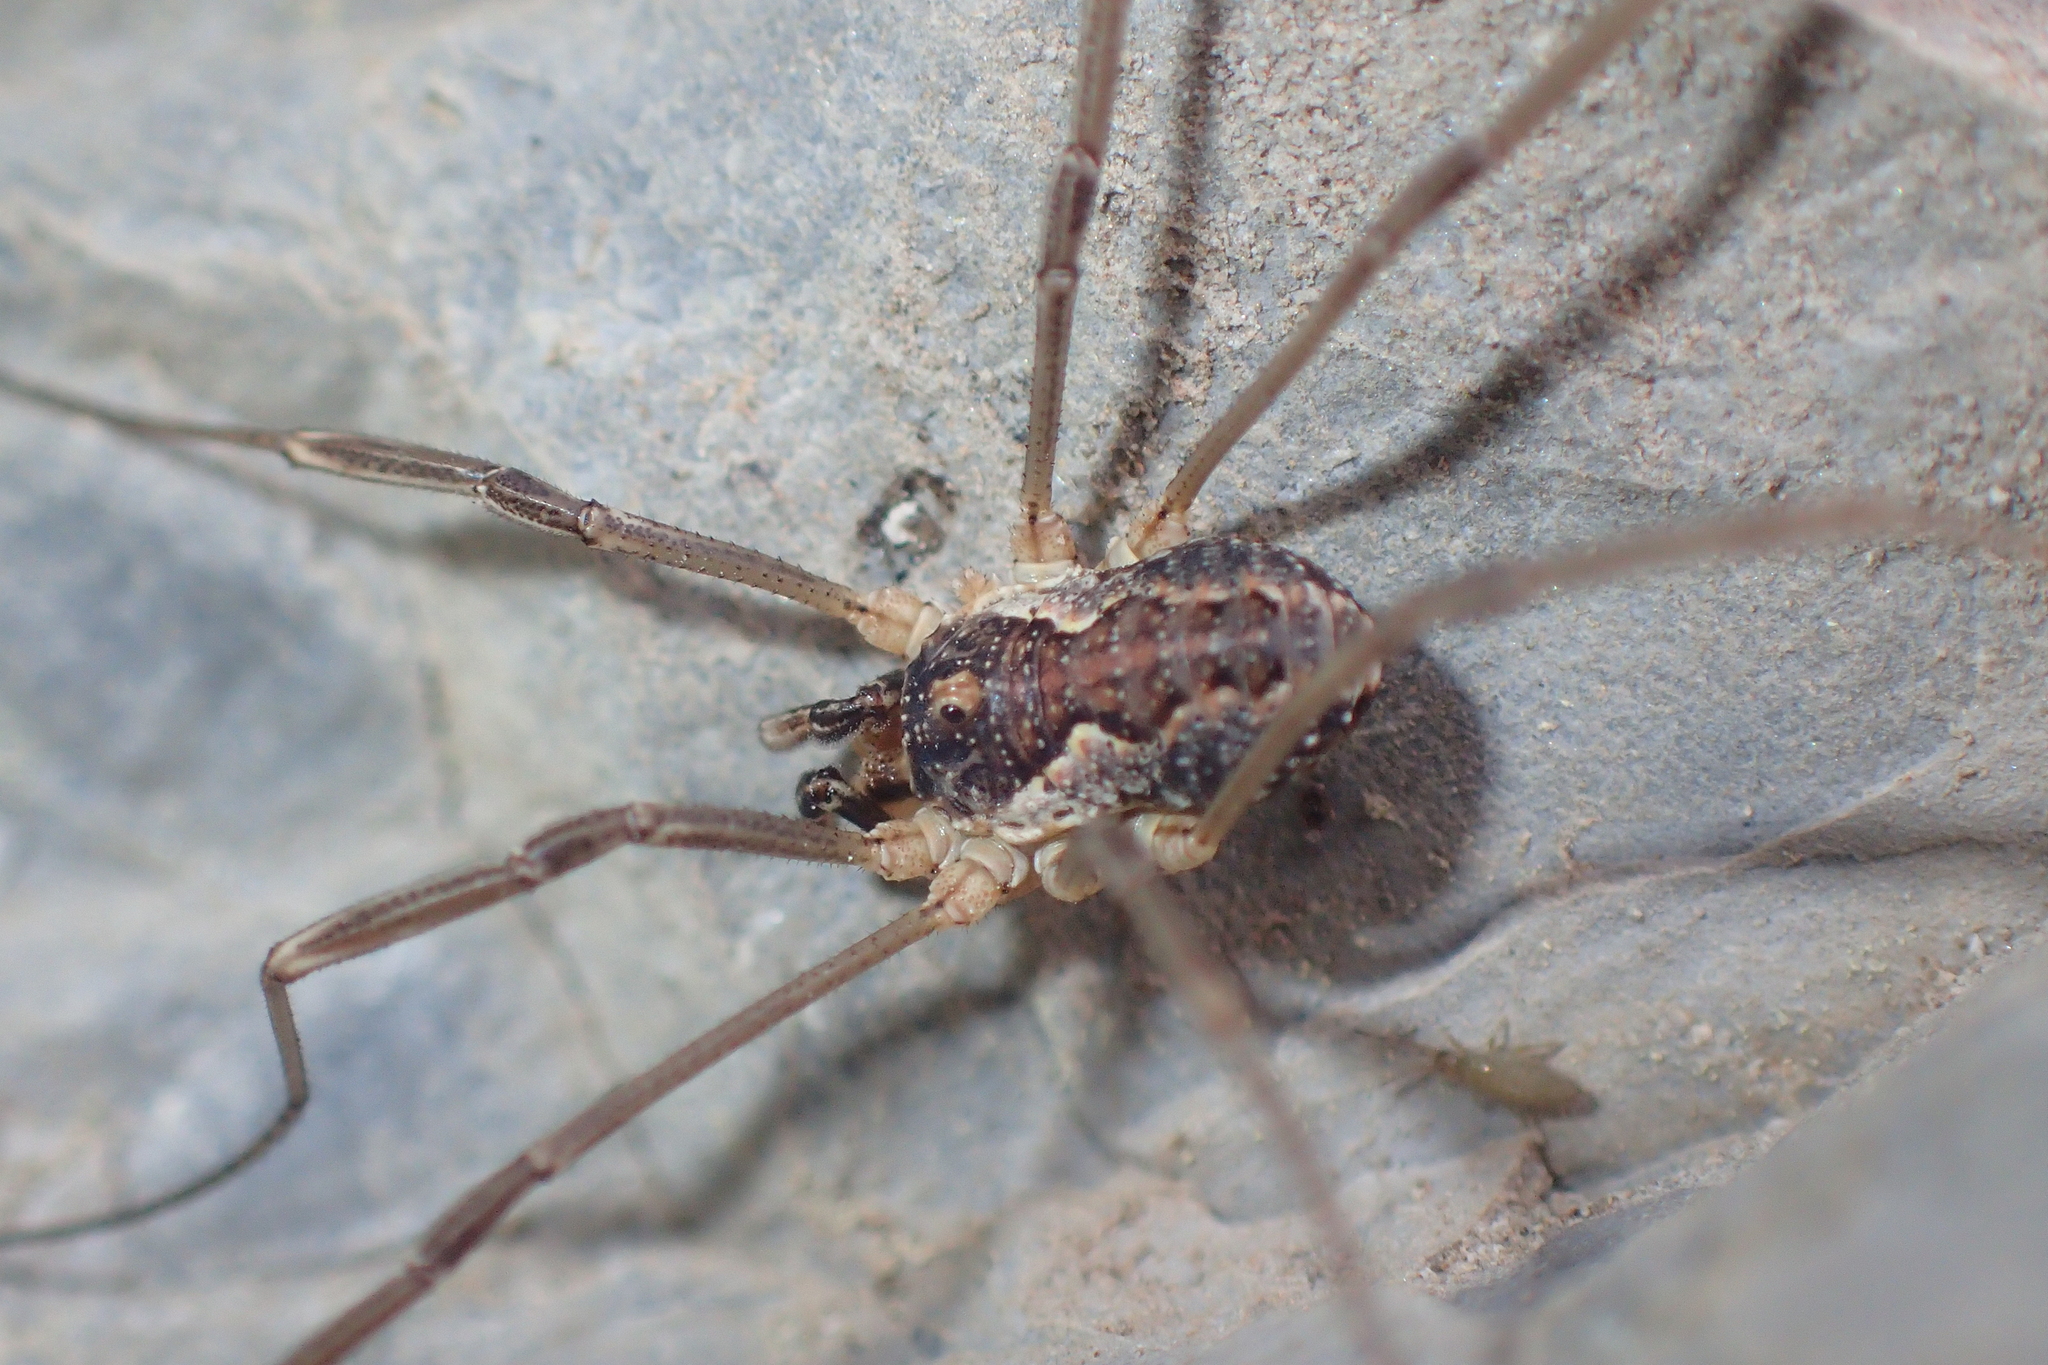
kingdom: Animalia
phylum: Arthropoda
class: Arachnida
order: Opiliones
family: Phalangiidae
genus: Mitopus
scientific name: Mitopus morio
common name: Saddleback harvestman
